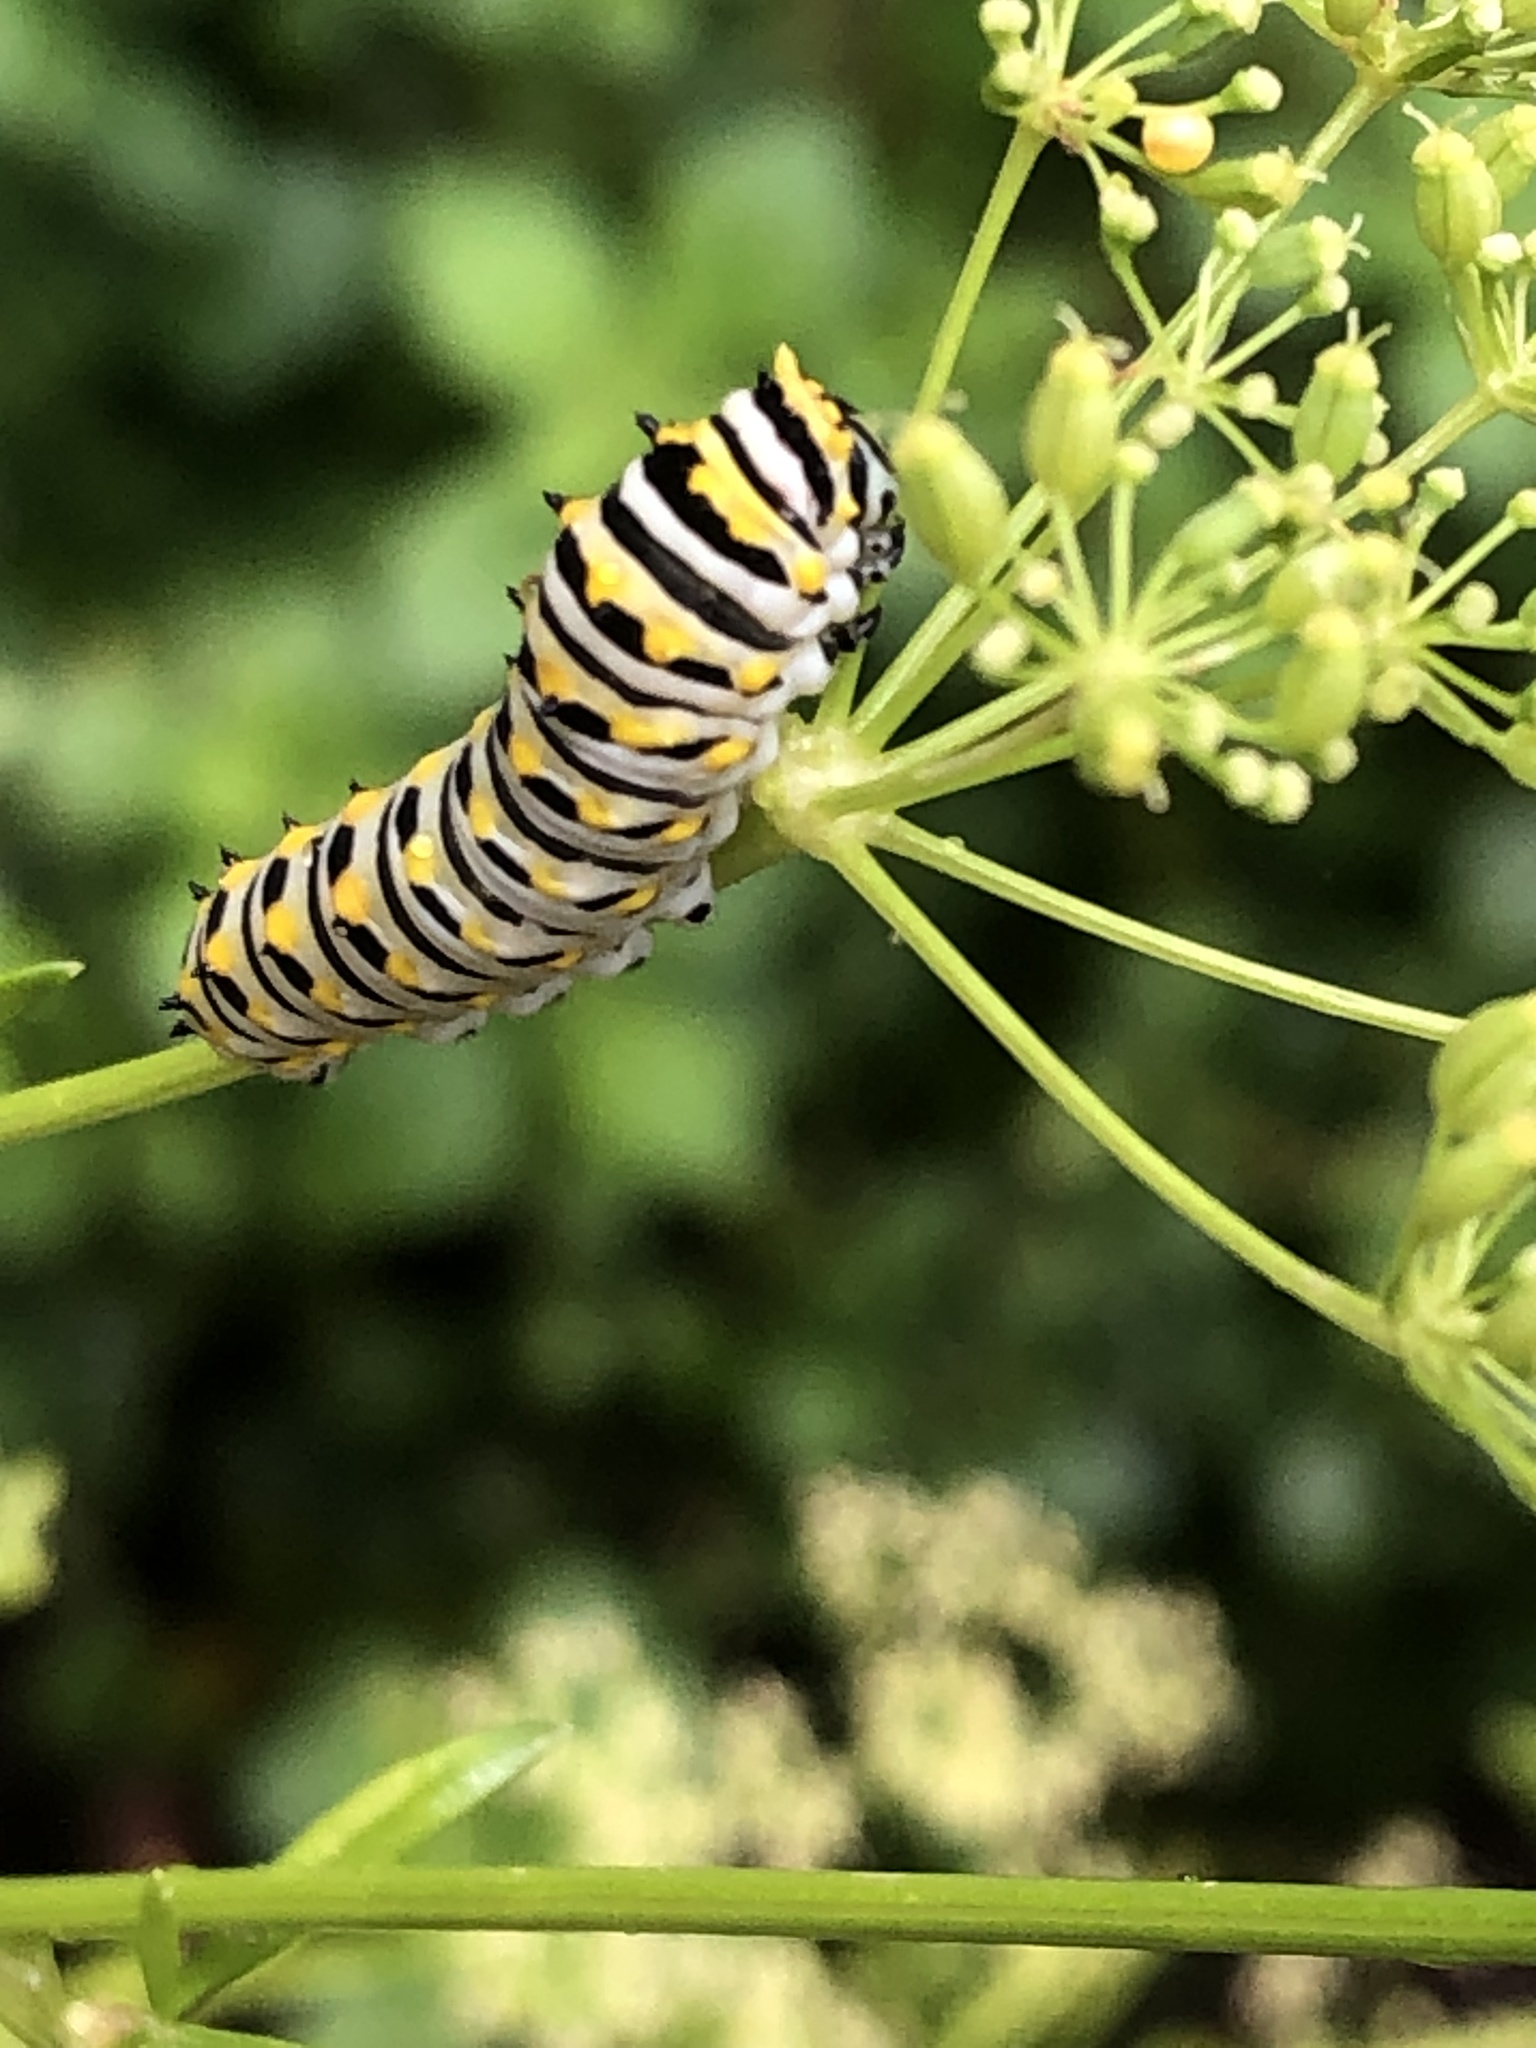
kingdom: Animalia
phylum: Arthropoda
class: Insecta
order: Lepidoptera
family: Papilionidae
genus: Papilio
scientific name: Papilio polyxenes
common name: Black swallowtail
